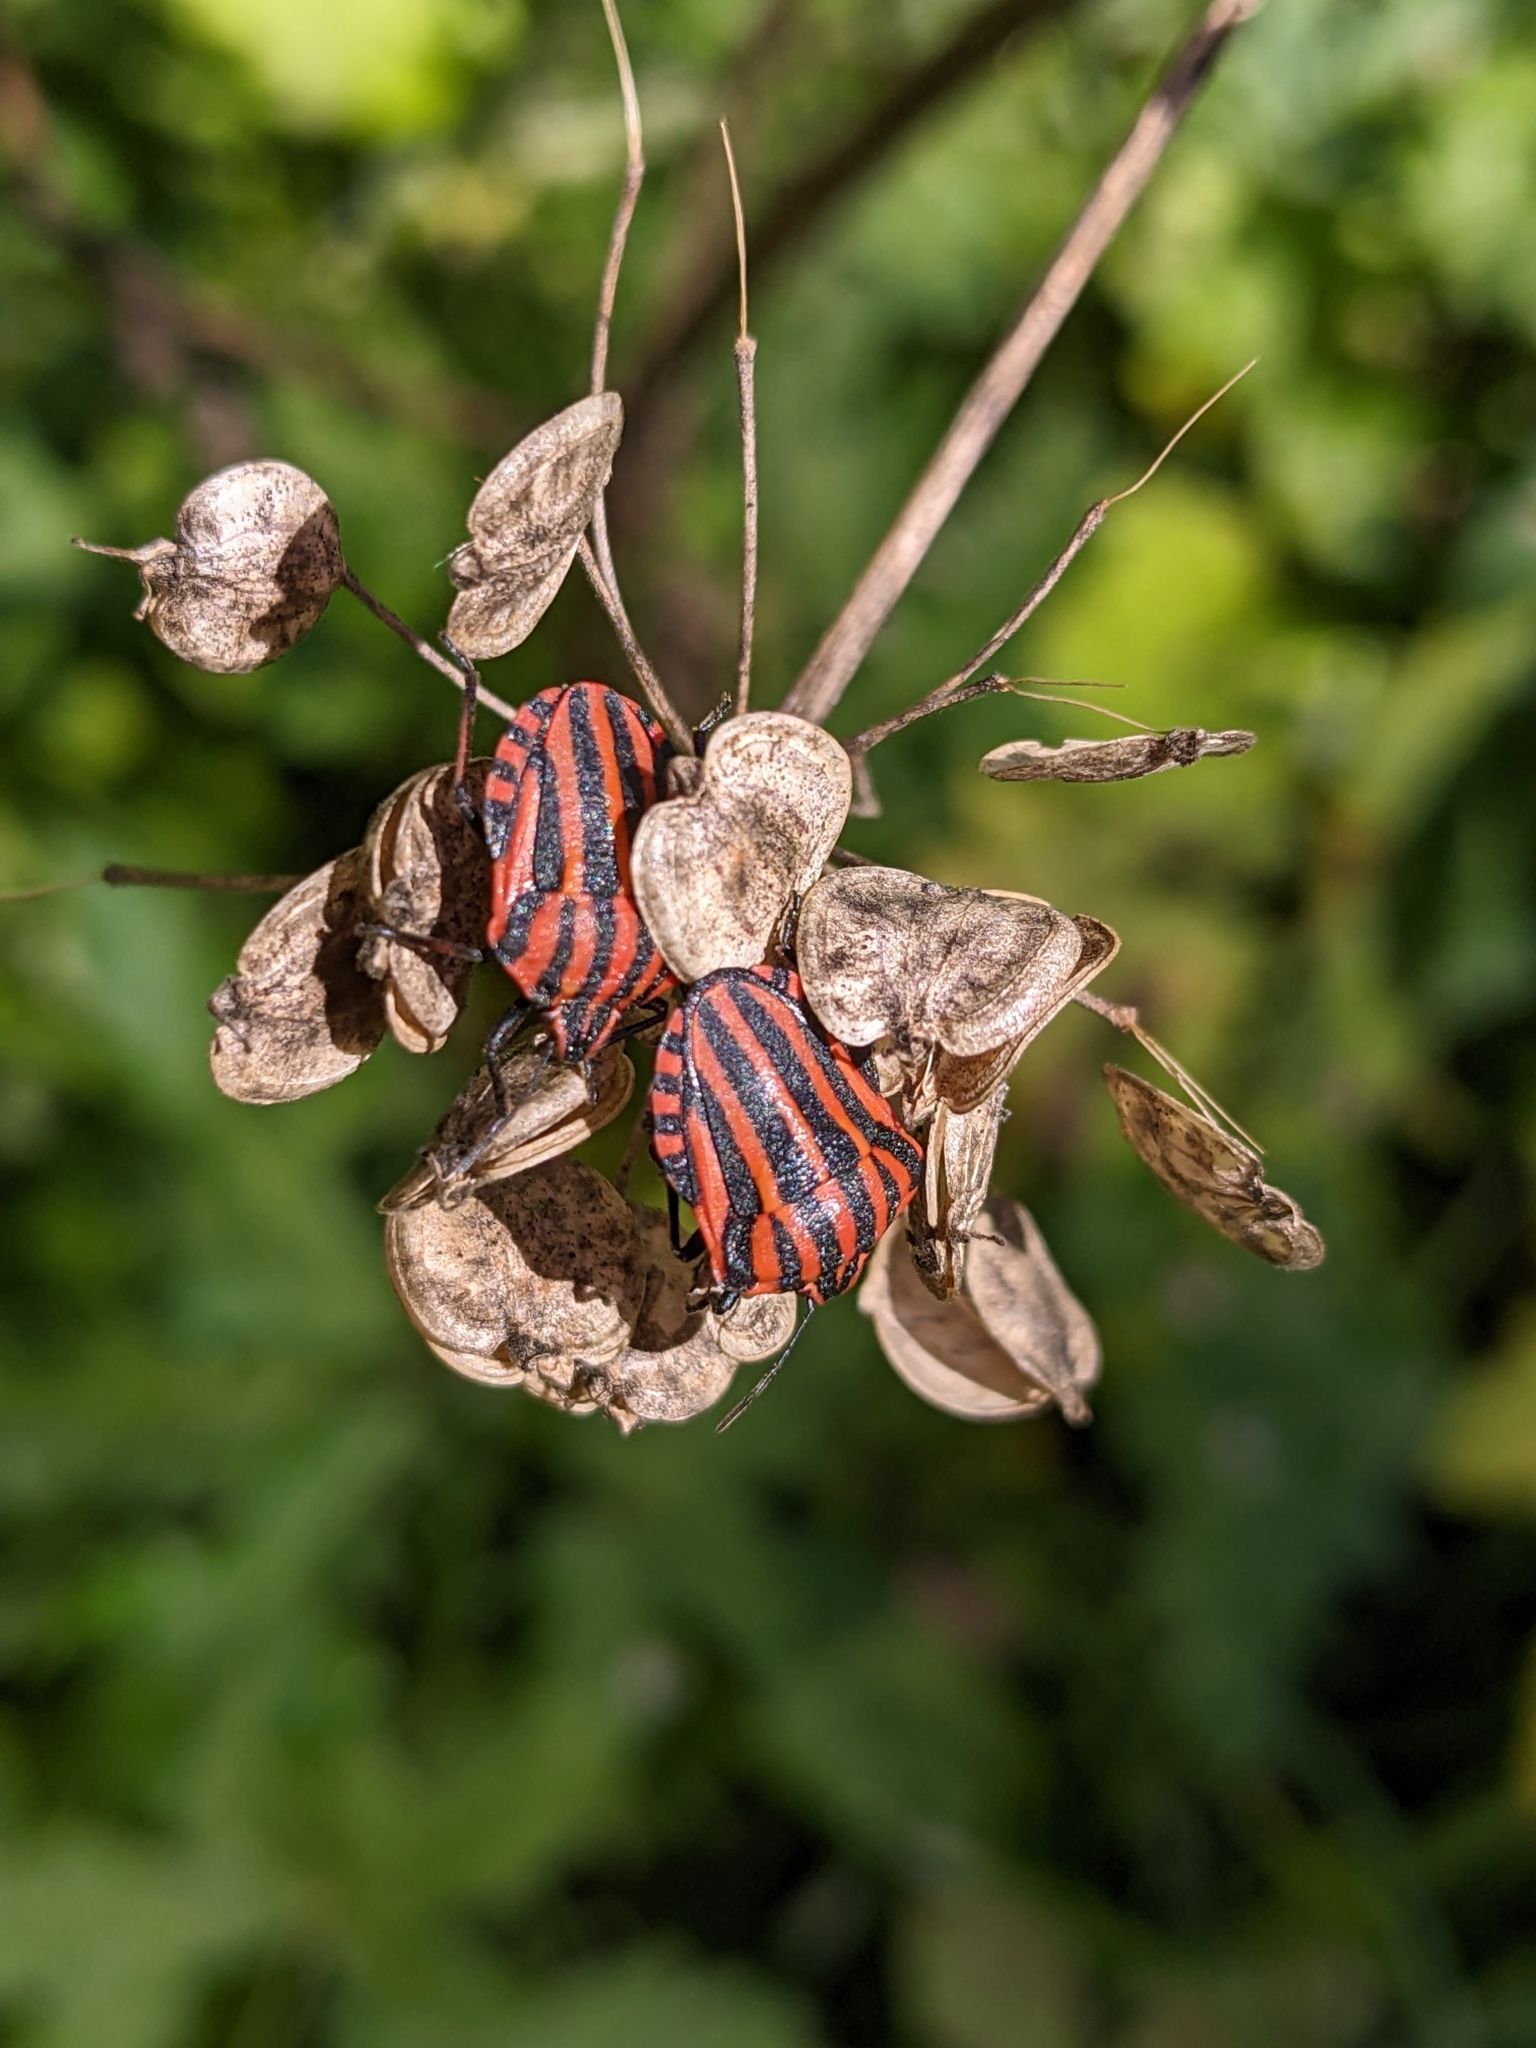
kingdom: Animalia
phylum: Arthropoda
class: Insecta
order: Hemiptera
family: Pentatomidae
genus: Graphosoma
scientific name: Graphosoma italicum
